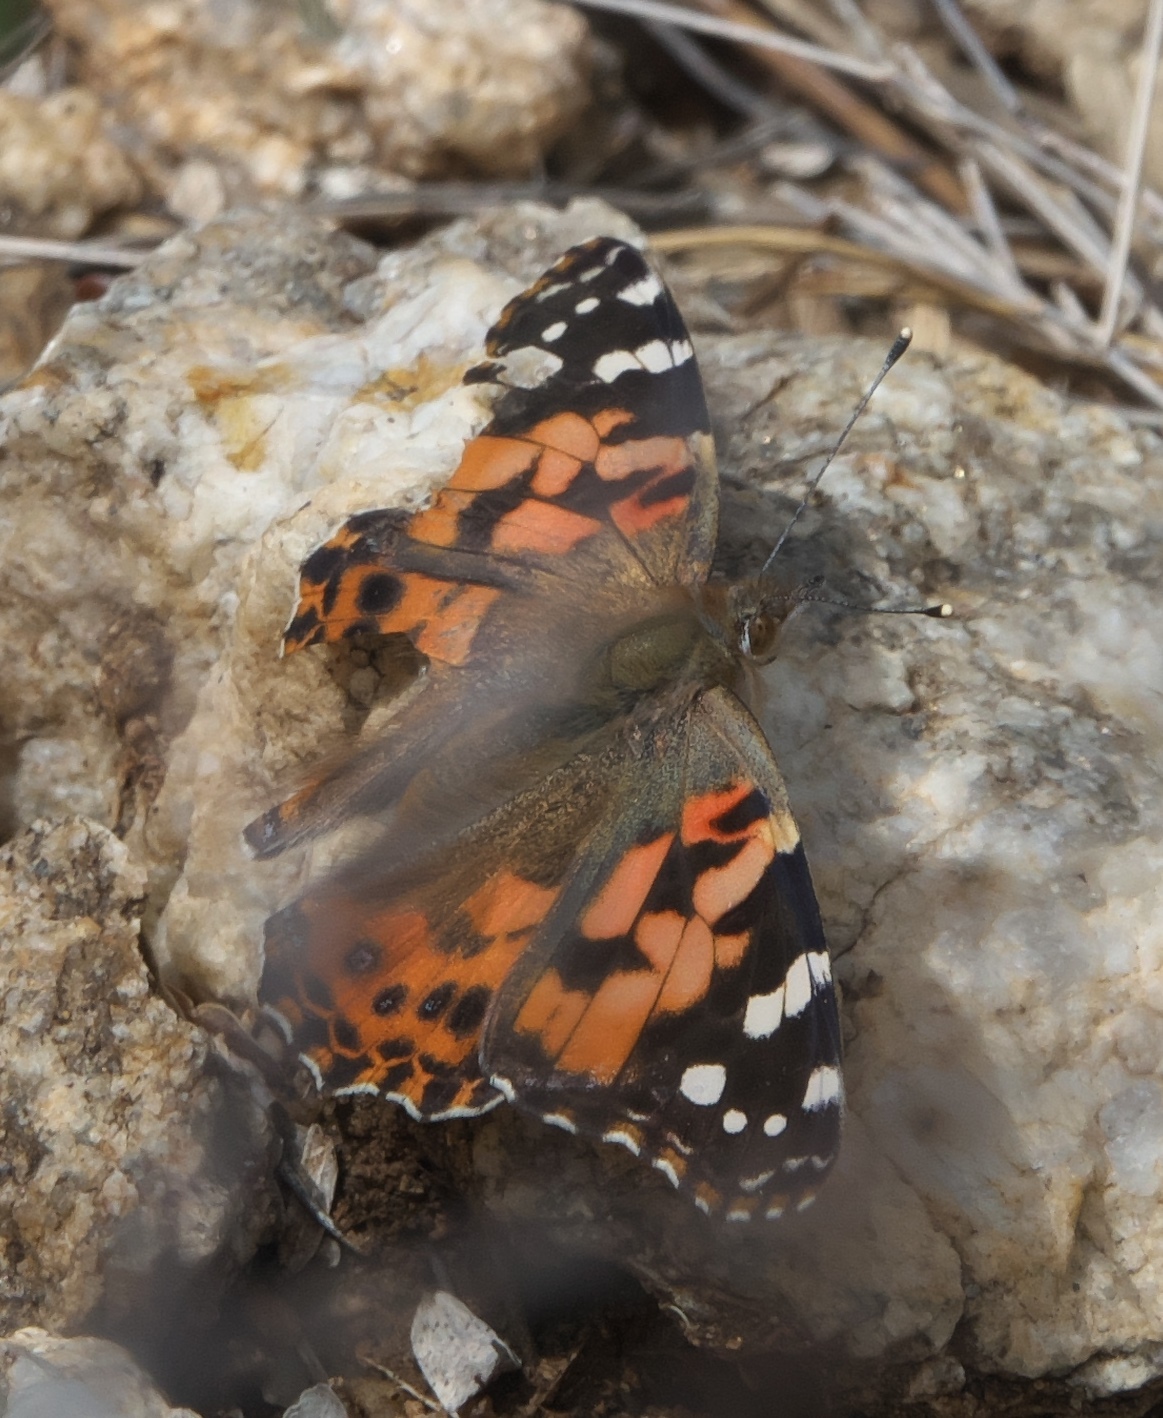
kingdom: Animalia
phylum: Arthropoda
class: Insecta
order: Lepidoptera
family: Nymphalidae
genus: Vanessa
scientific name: Vanessa cardui
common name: Painted lady
